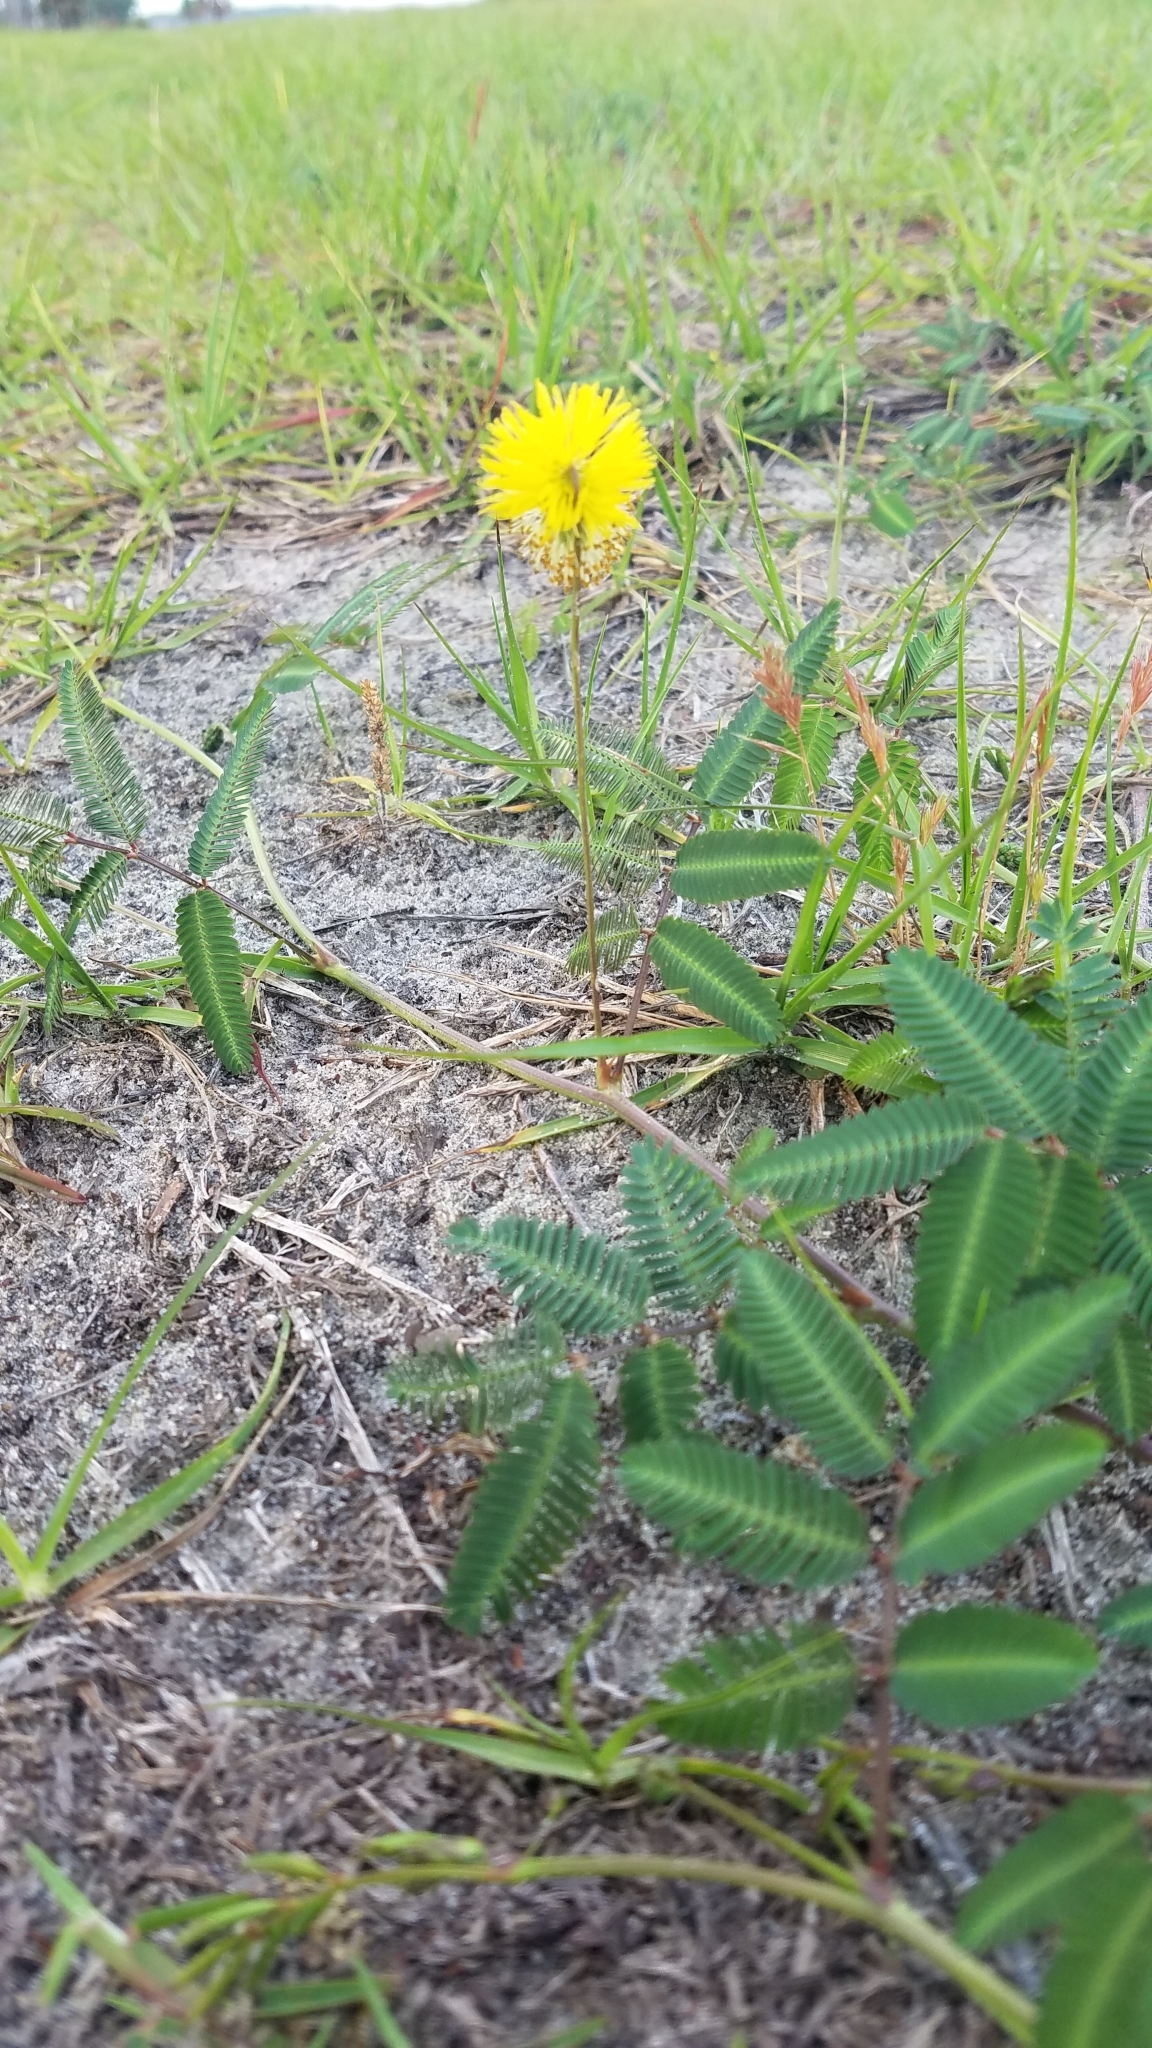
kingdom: Plantae
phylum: Tracheophyta
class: Magnoliopsida
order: Fabales
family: Fabaceae
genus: Neptunia
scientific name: Neptunia pubescens
